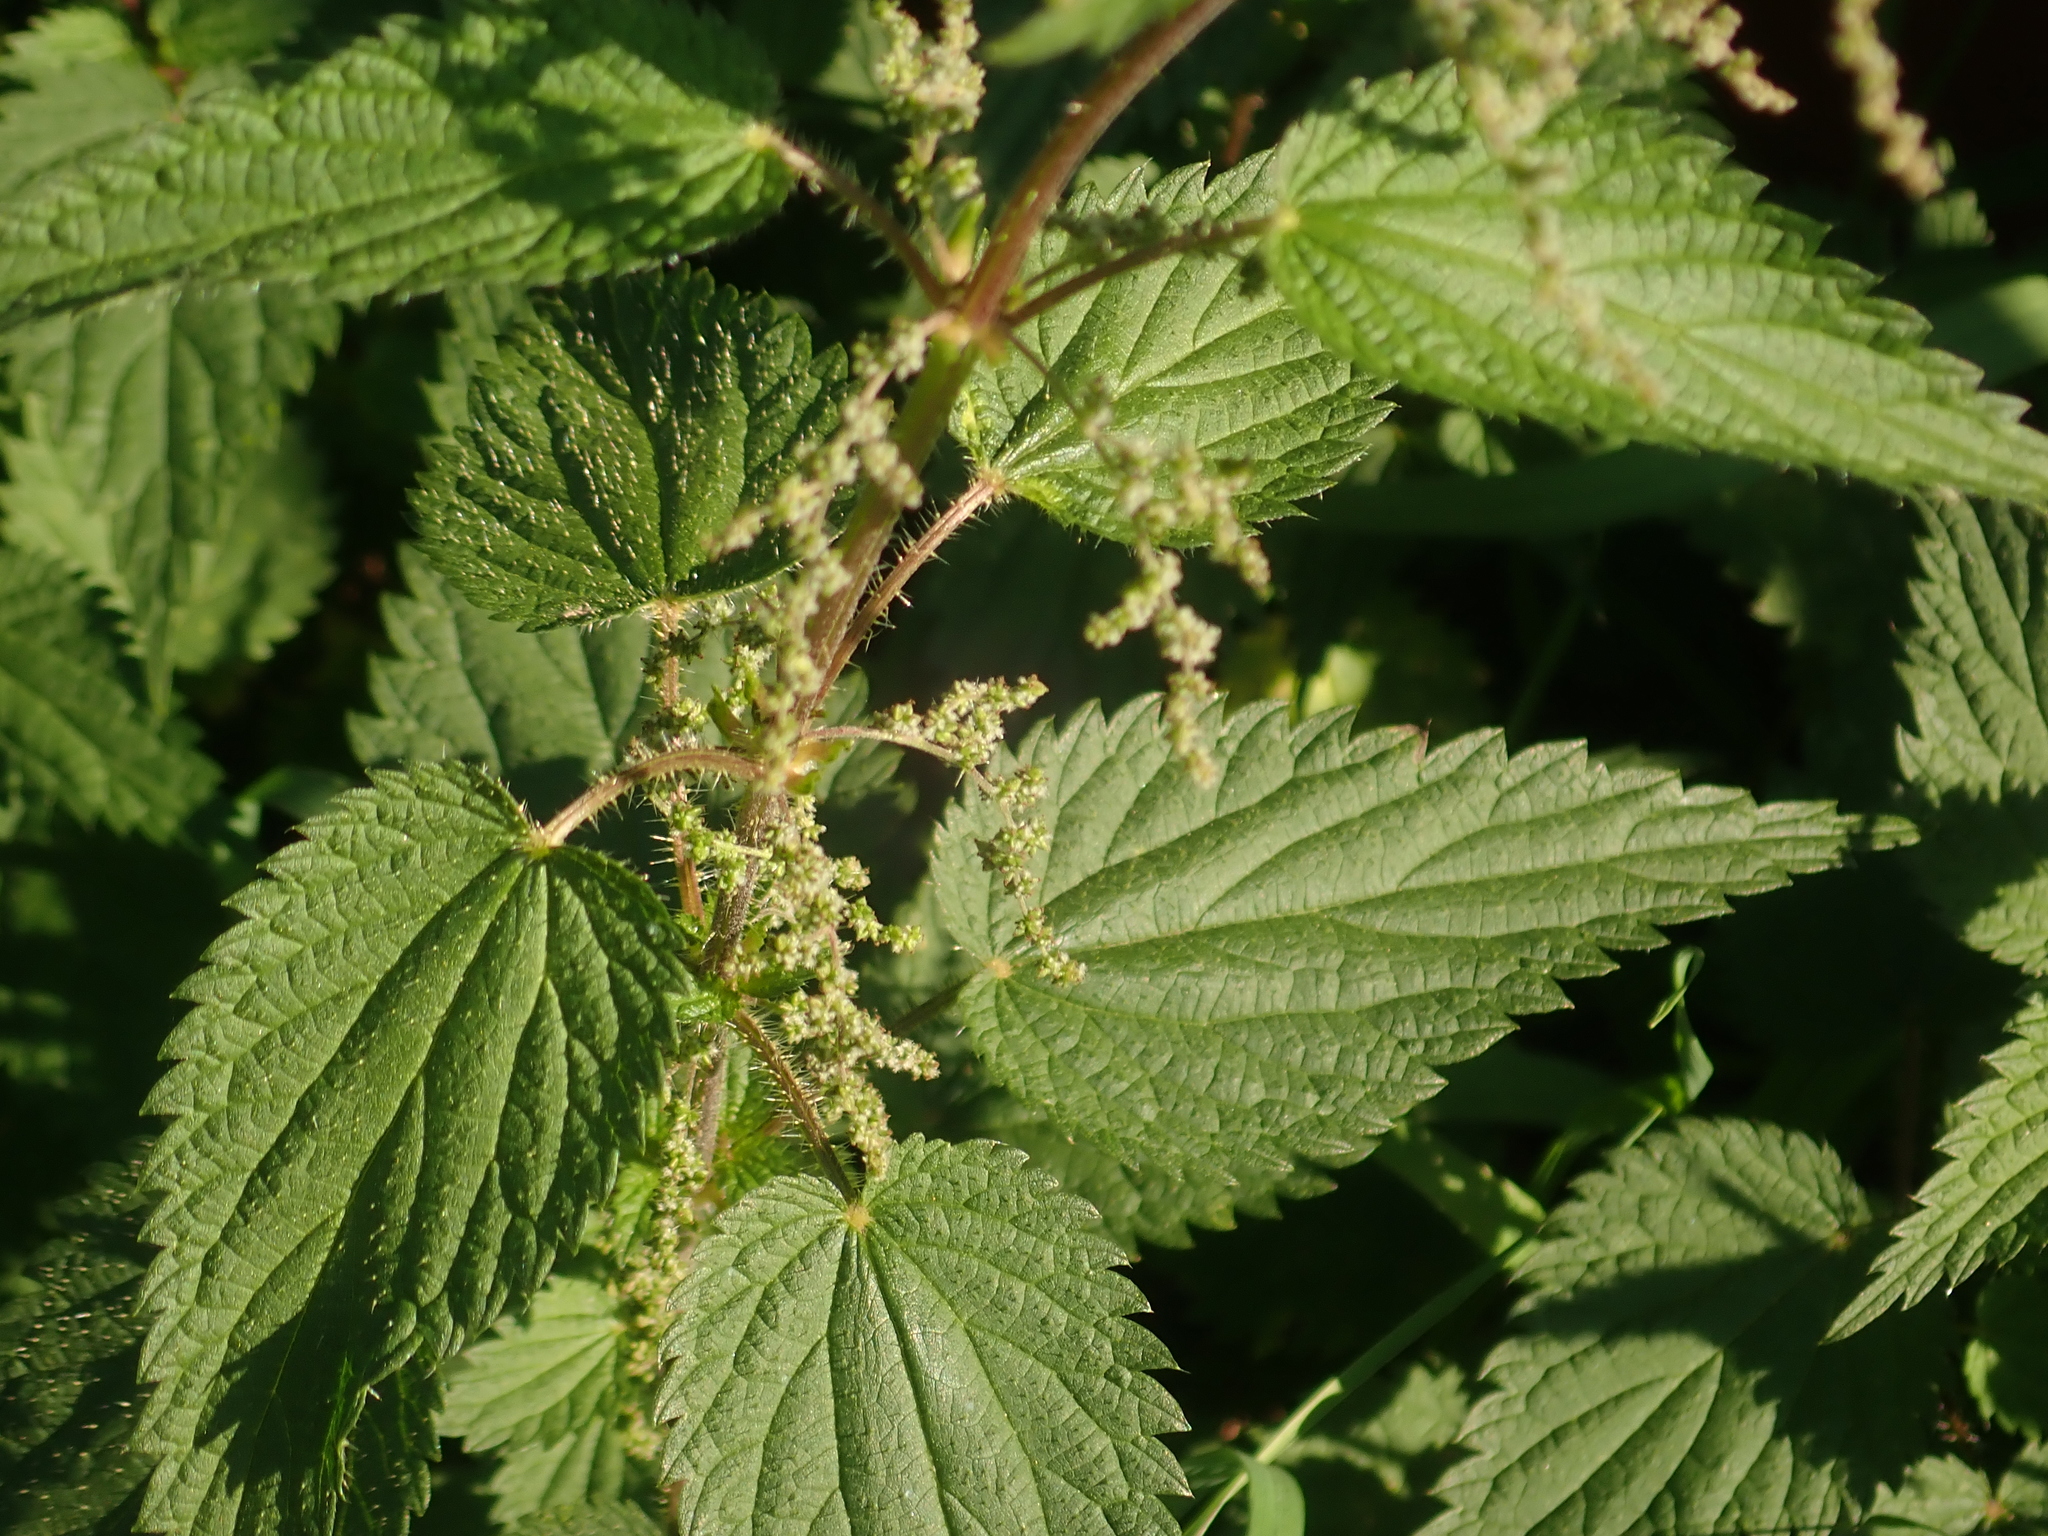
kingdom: Plantae
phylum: Tracheophyta
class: Magnoliopsida
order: Rosales
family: Urticaceae
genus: Urtica
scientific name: Urtica dioica
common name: Common nettle
